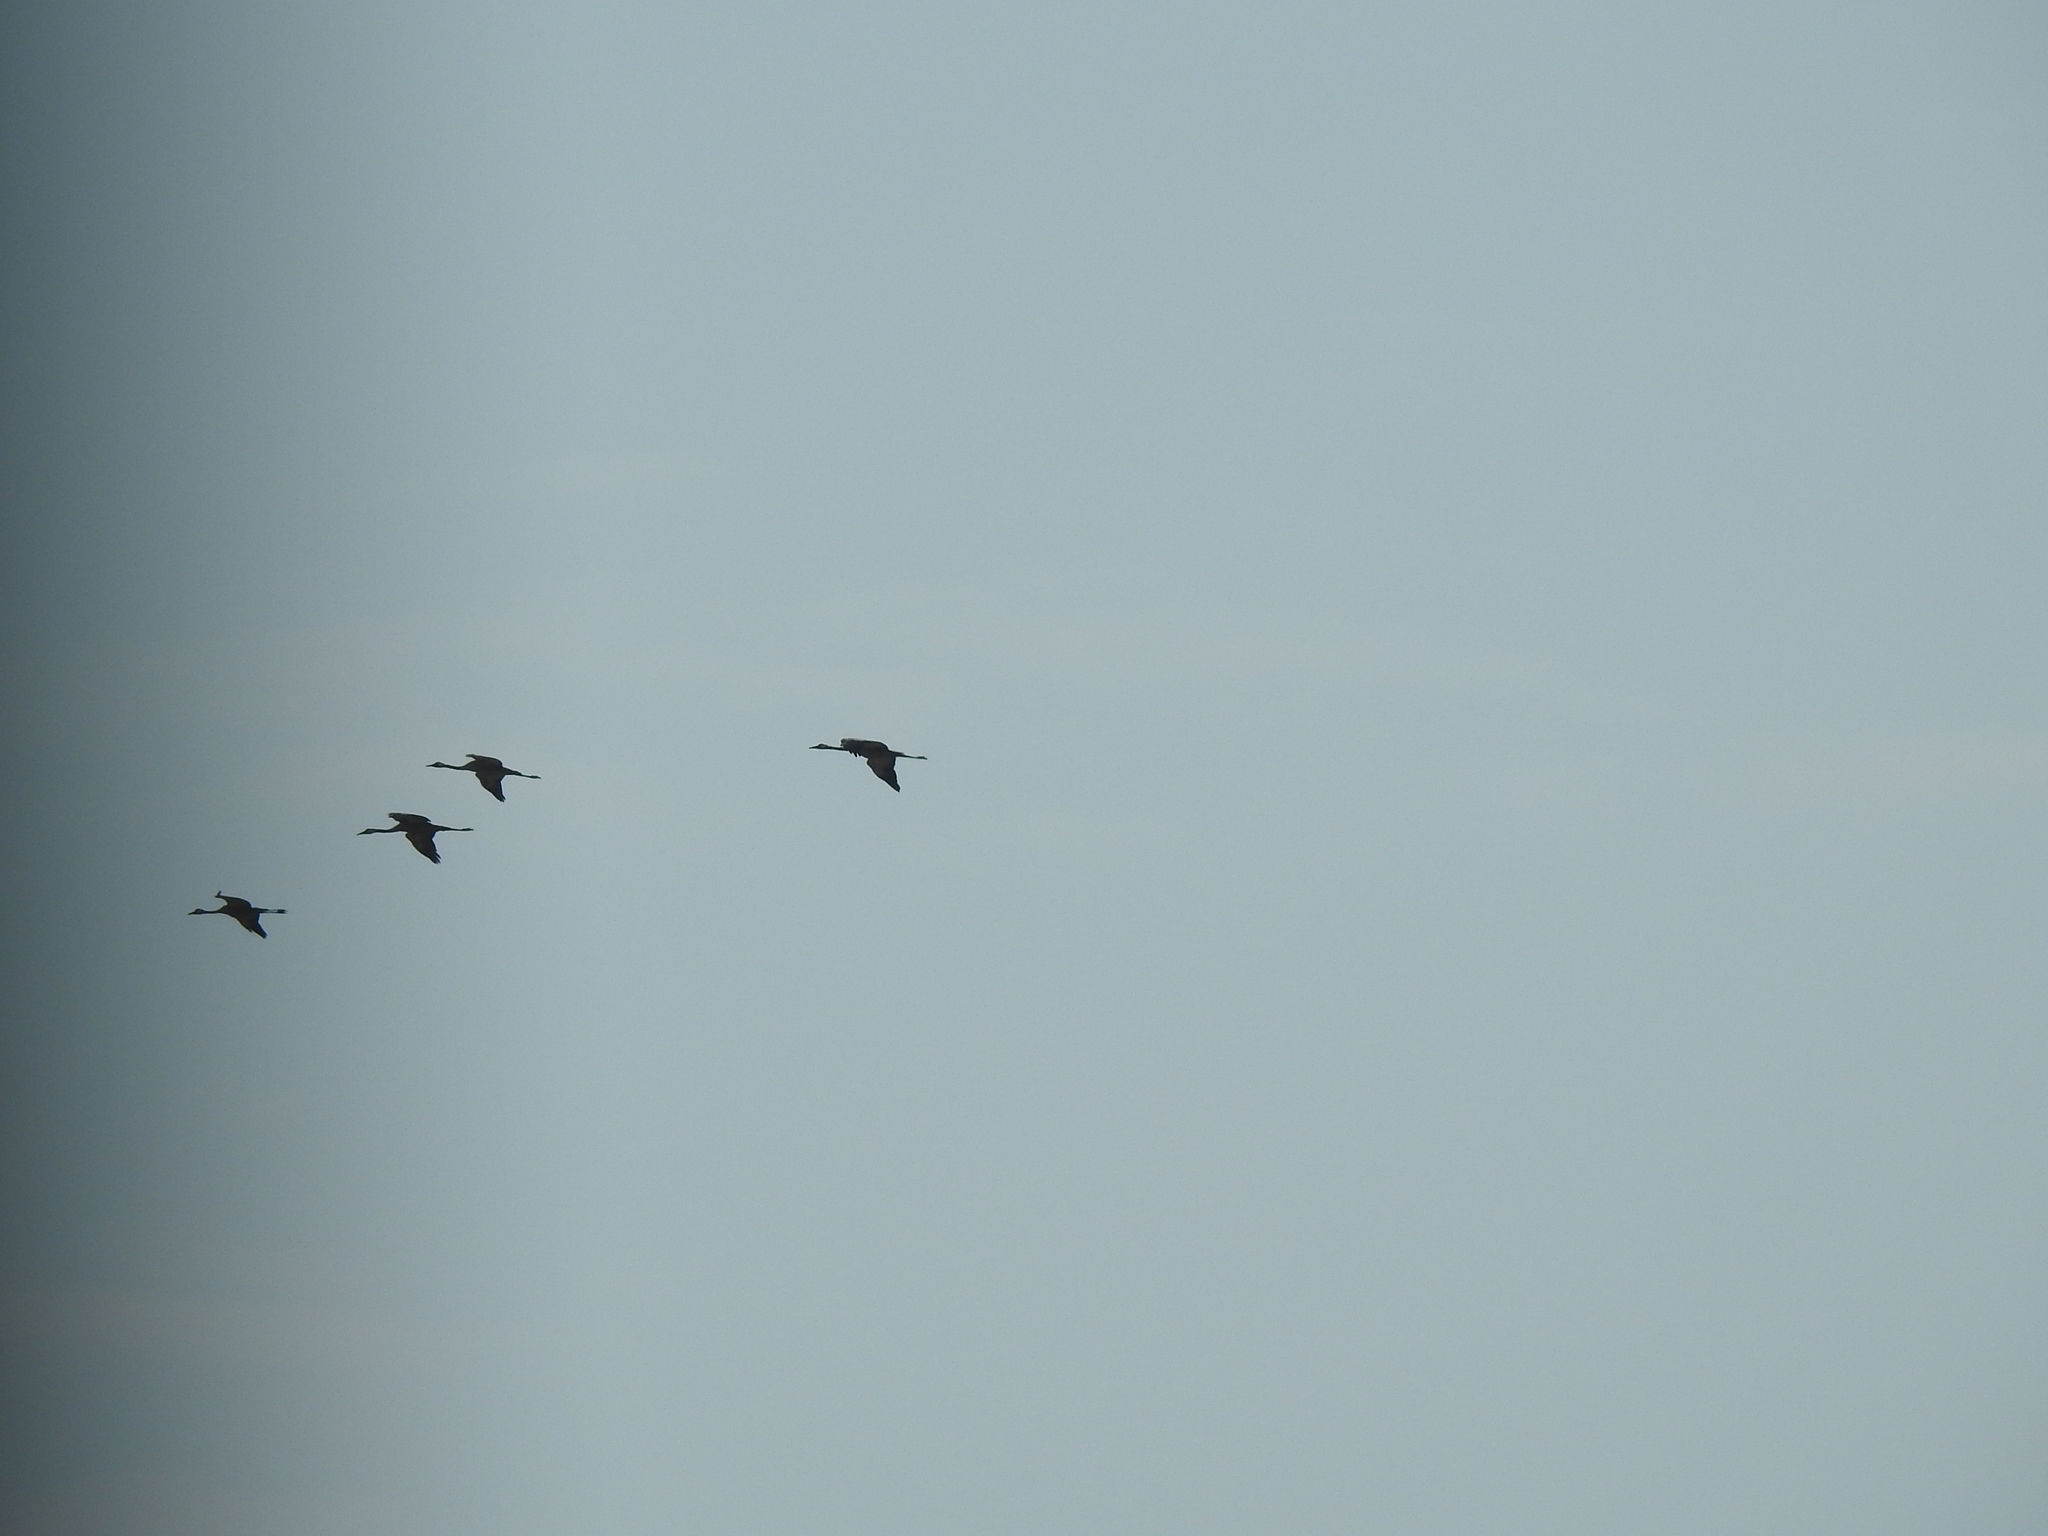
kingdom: Animalia
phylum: Chordata
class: Aves
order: Gruiformes
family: Gruidae
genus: Grus
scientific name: Grus grus
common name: Common crane
